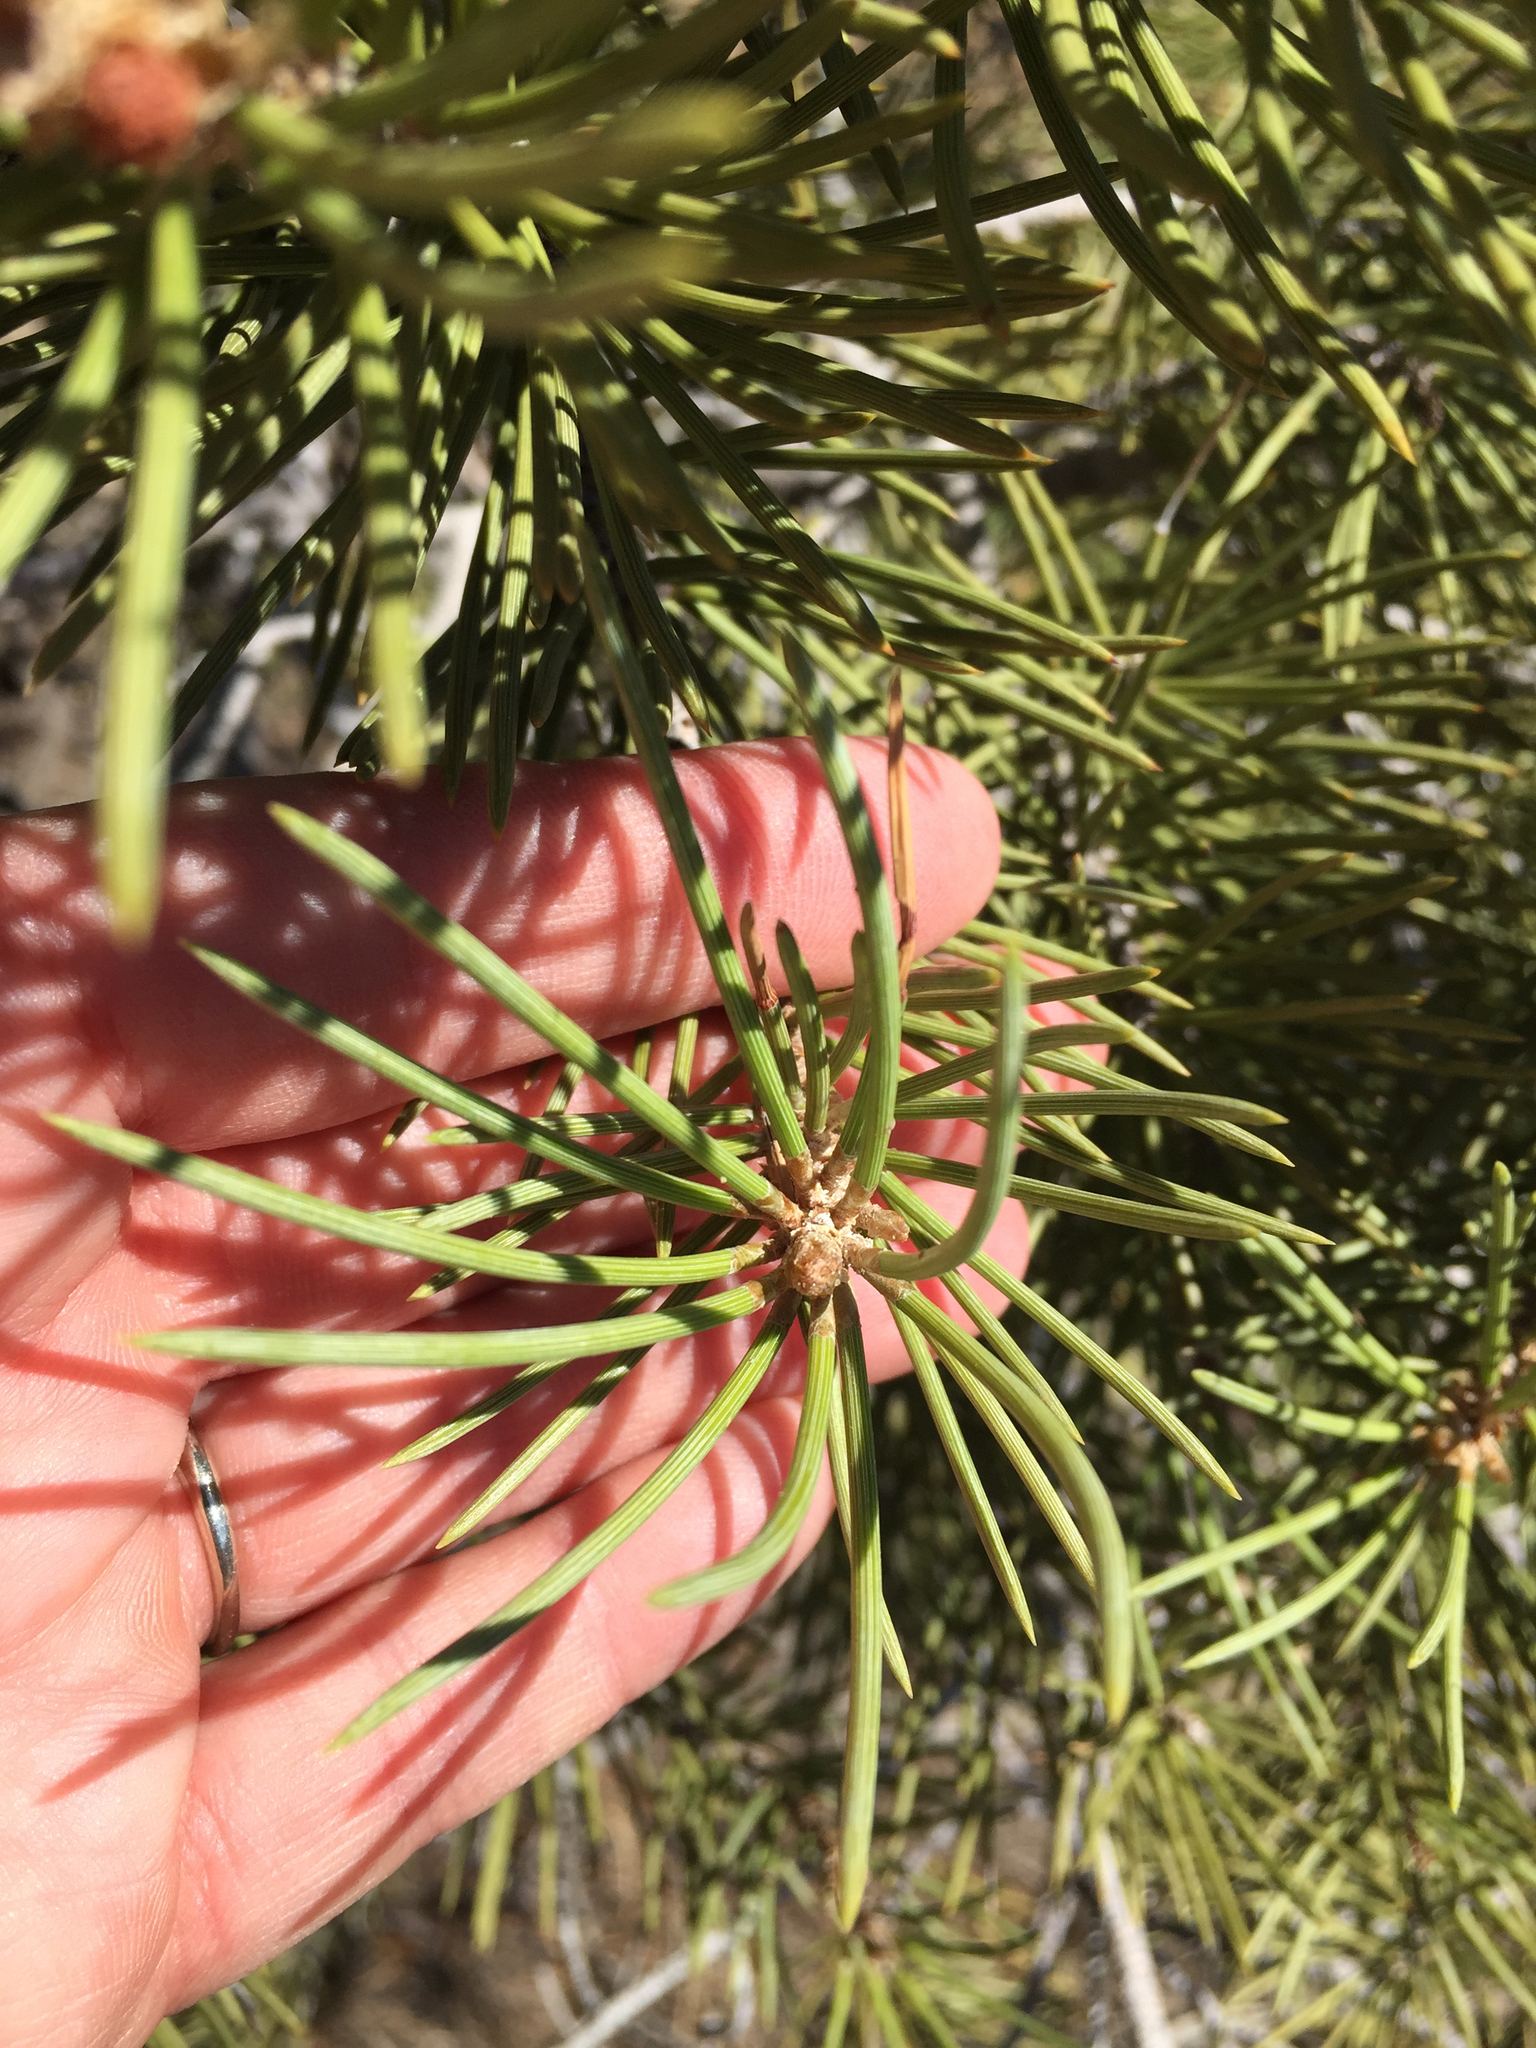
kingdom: Plantae
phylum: Tracheophyta
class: Pinopsida
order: Pinales
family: Pinaceae
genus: Pinus
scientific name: Pinus monophylla
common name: One-leaved nut pine
